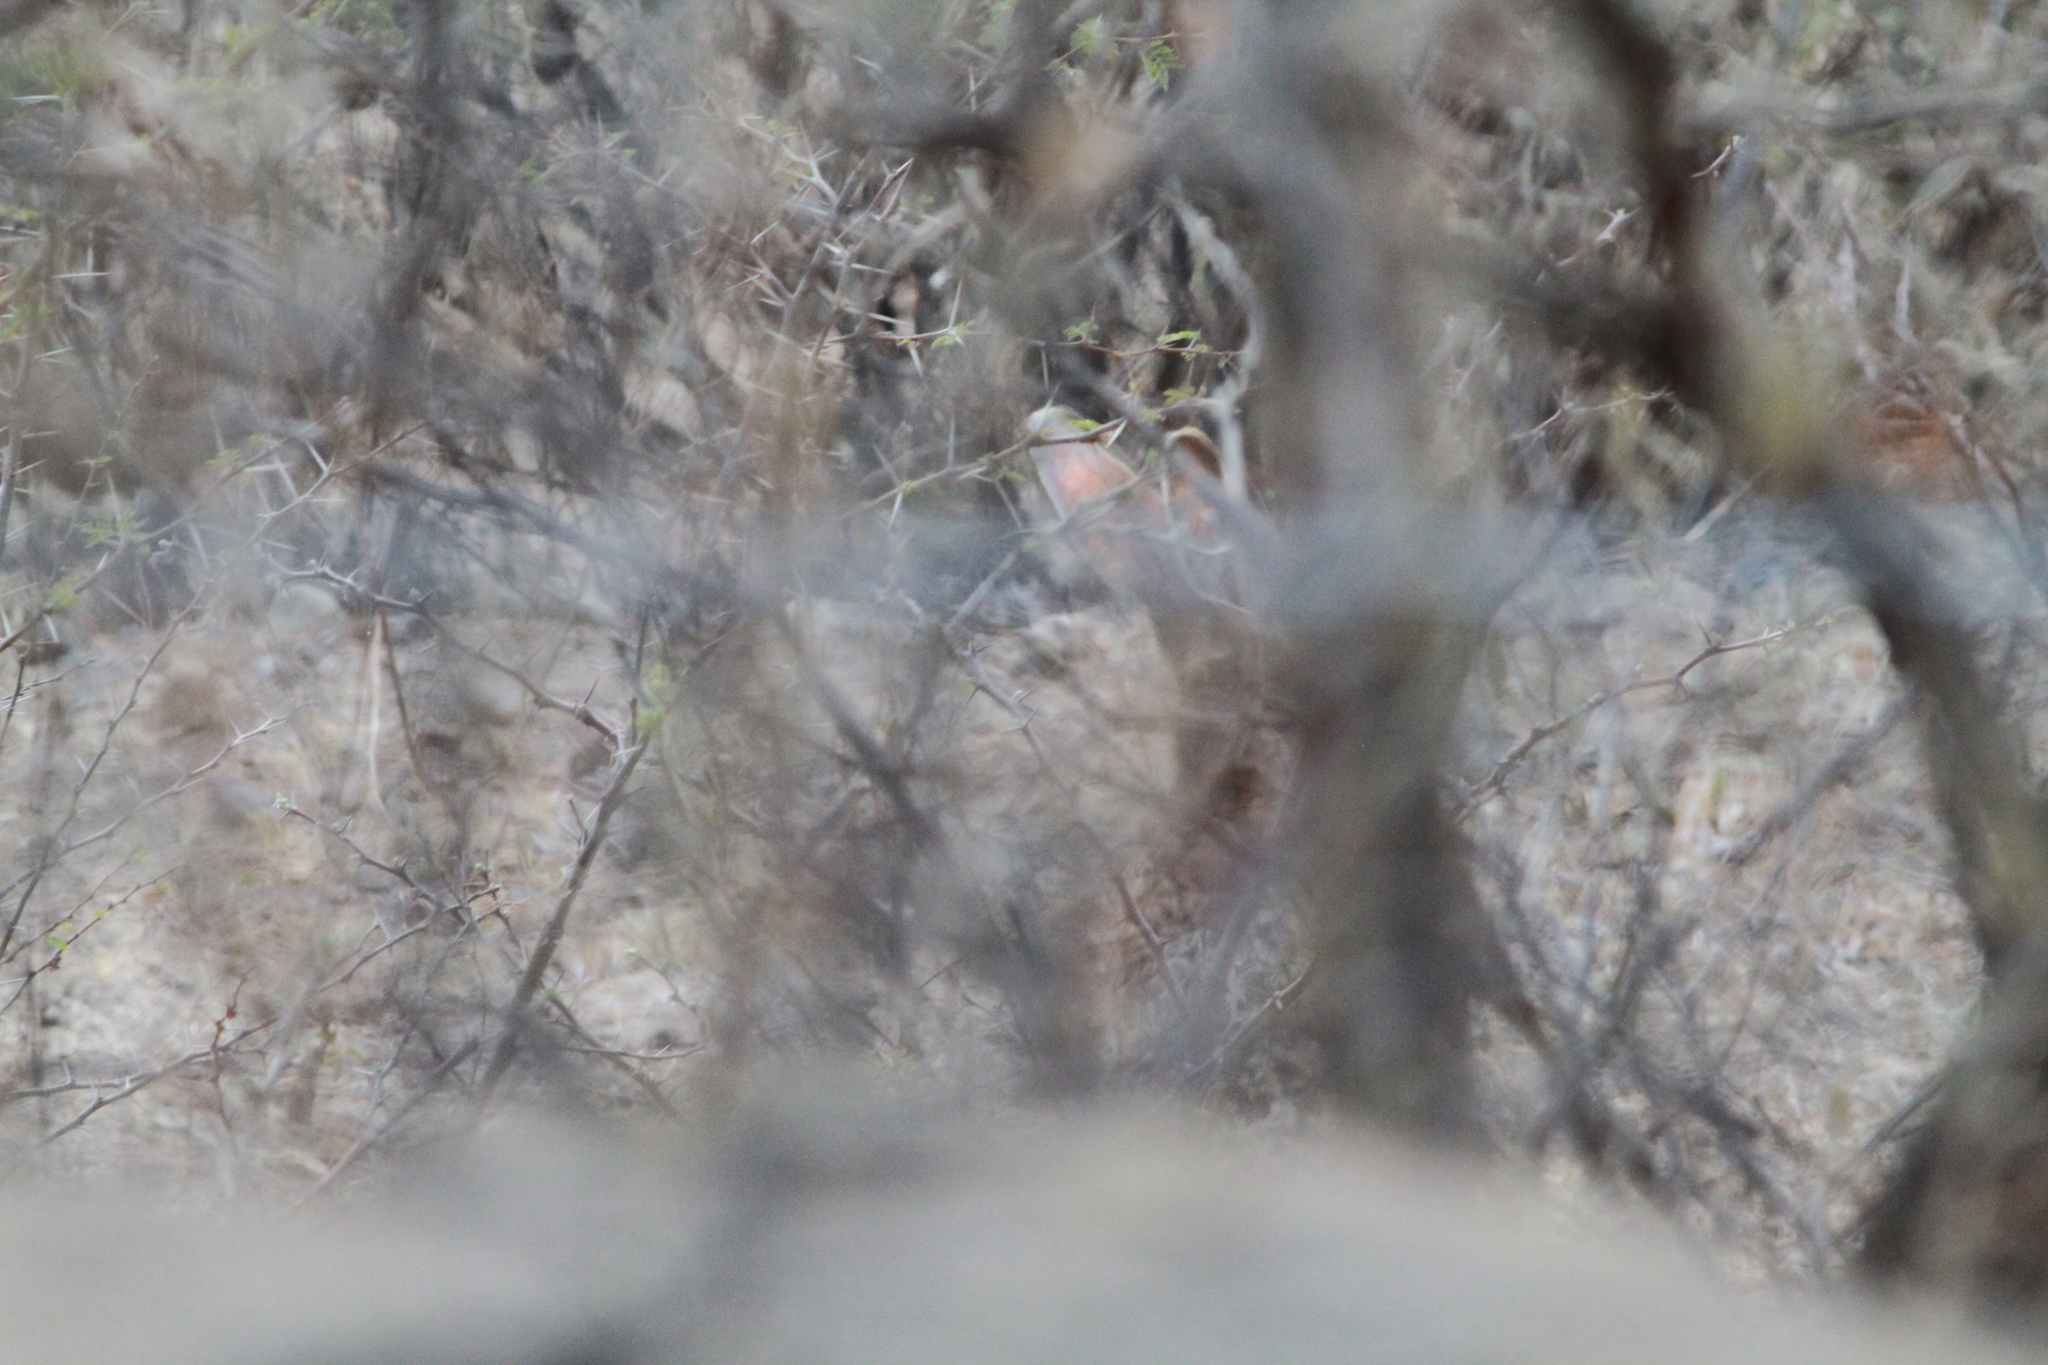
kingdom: Animalia
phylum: Chordata
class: Mammalia
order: Lagomorpha
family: Leporidae
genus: Lepus
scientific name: Lepus callotis
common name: White-sided jackrabbit
